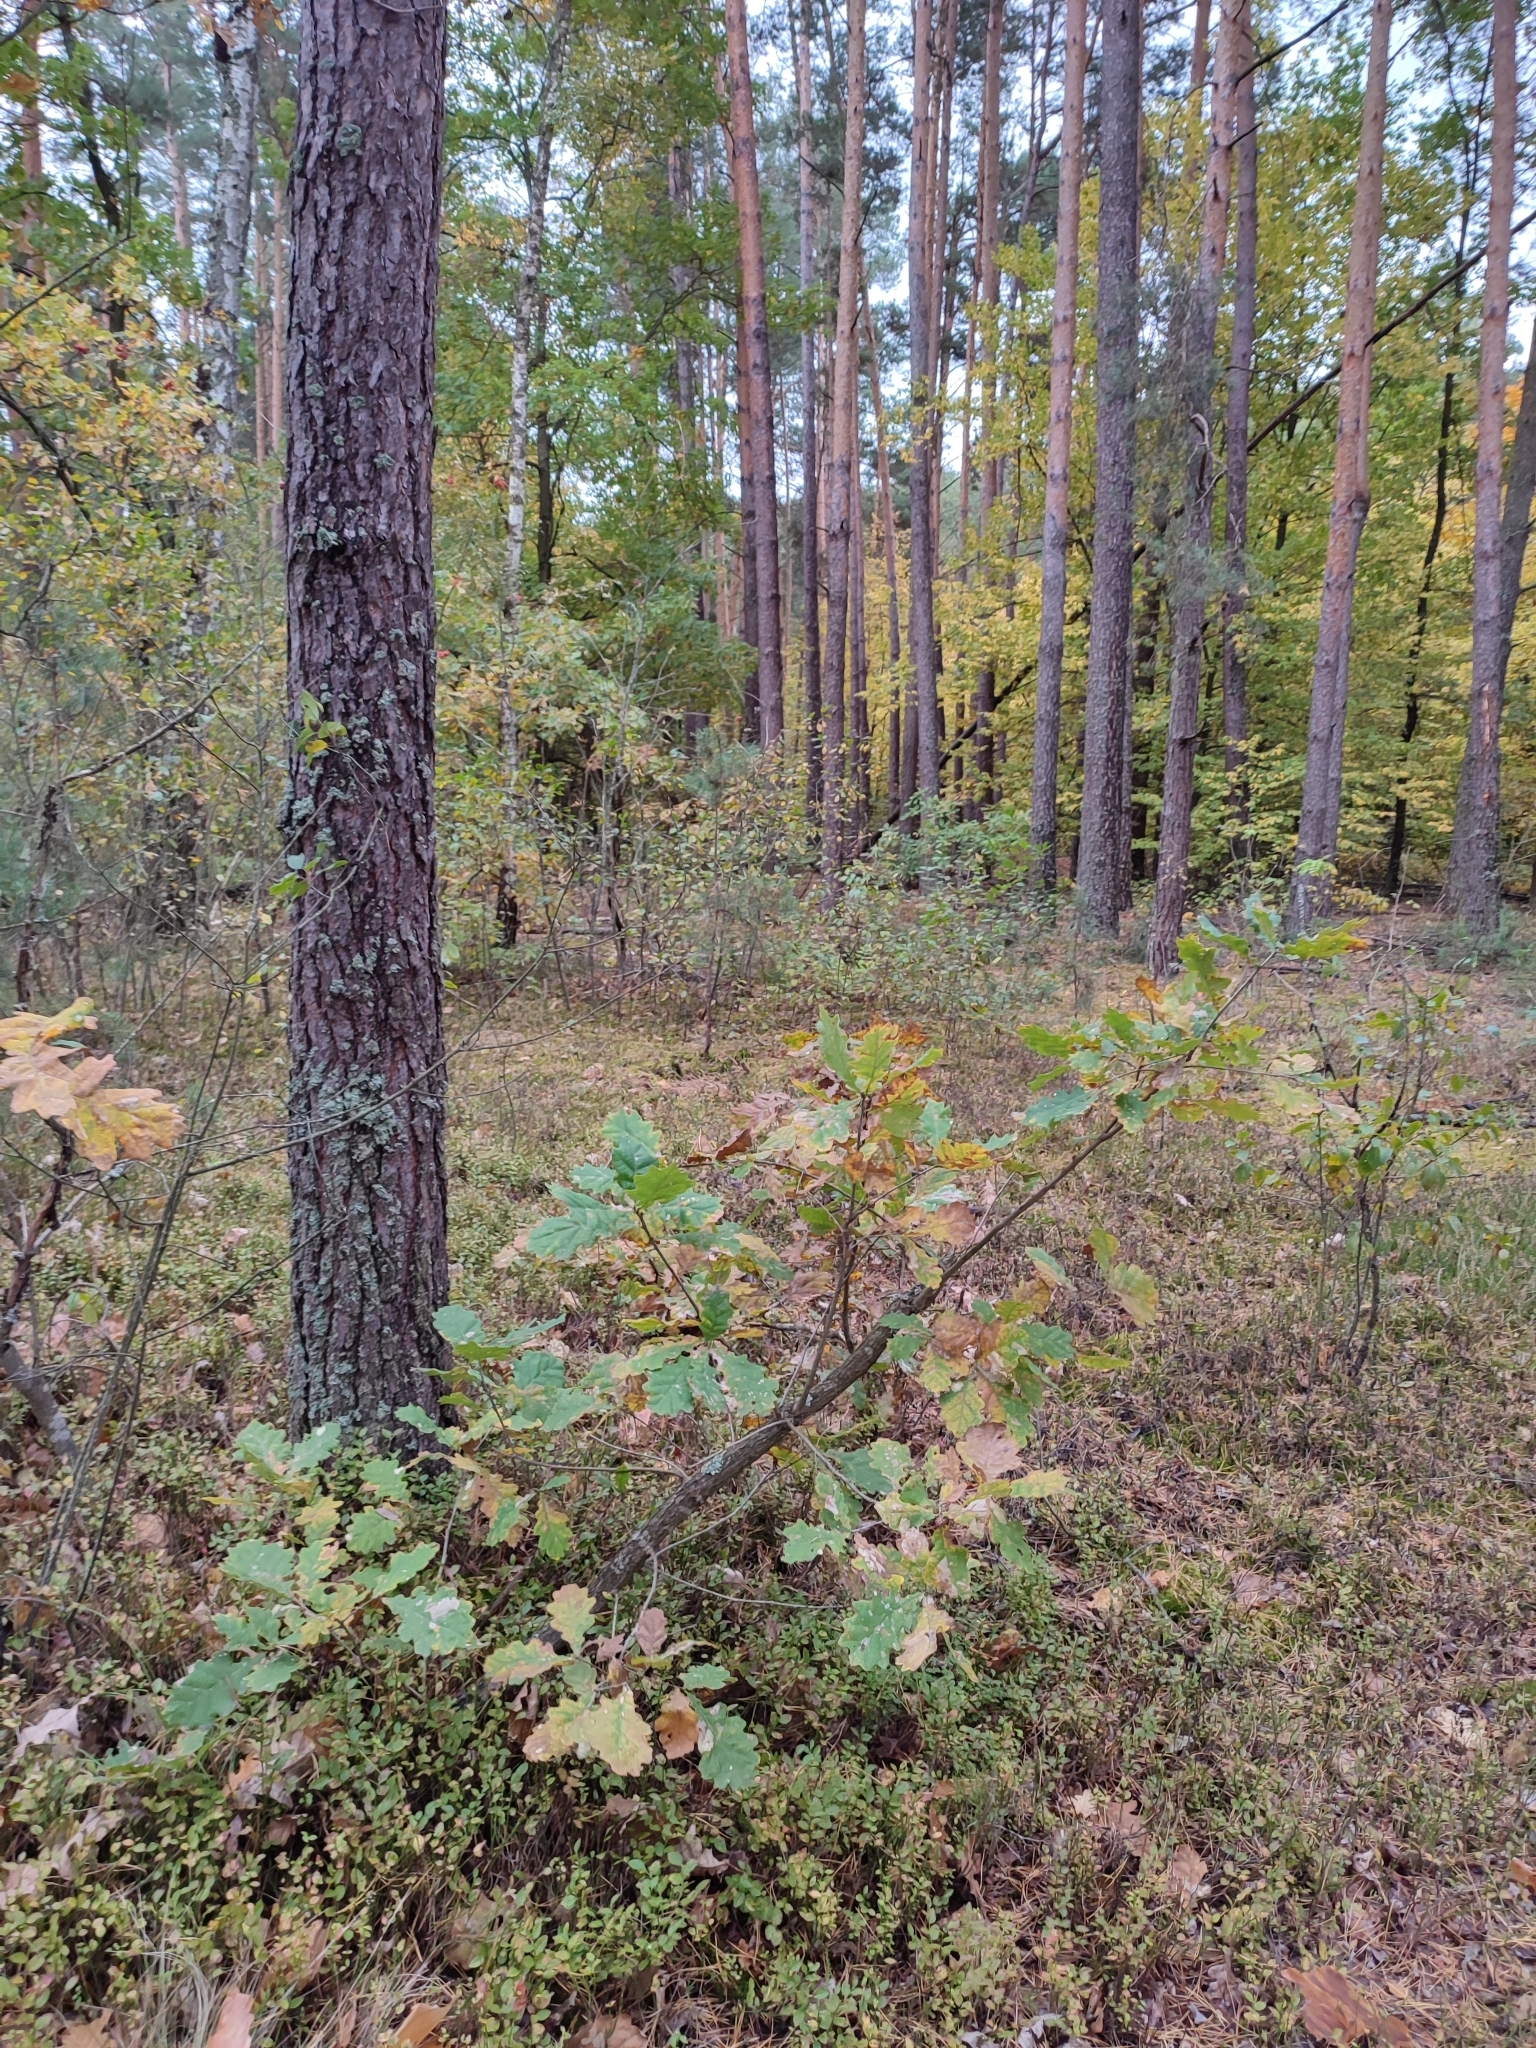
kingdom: Plantae
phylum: Tracheophyta
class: Magnoliopsida
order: Fagales
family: Fagaceae
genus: Quercus
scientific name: Quercus robur
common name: Pedunculate oak
